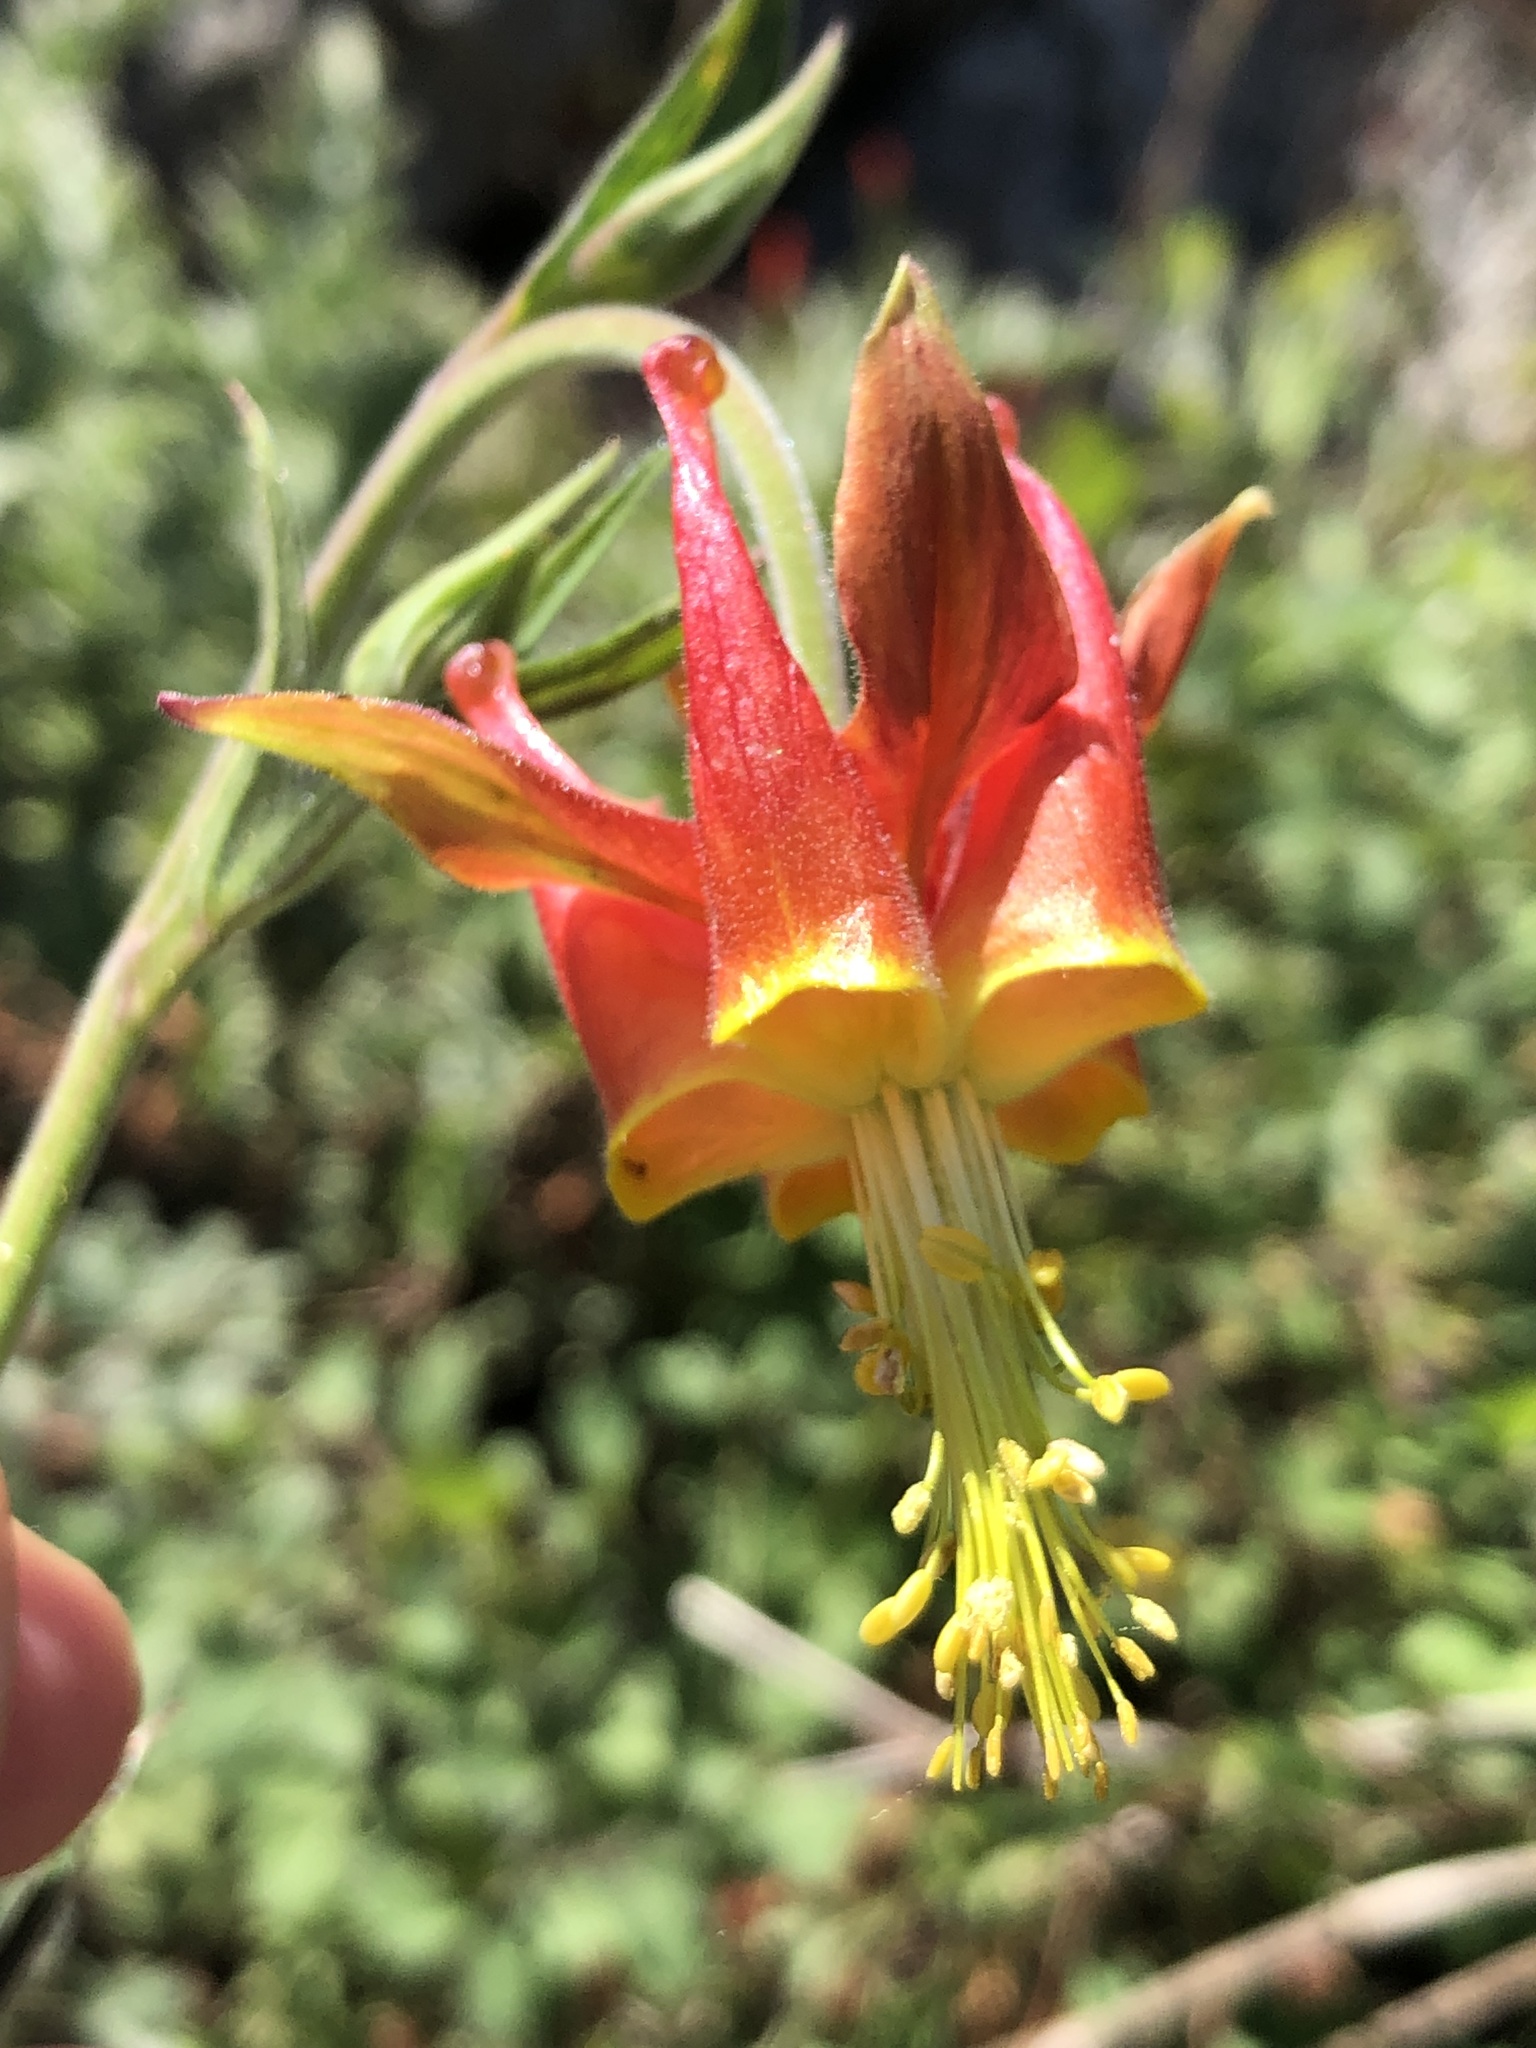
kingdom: Plantae
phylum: Tracheophyta
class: Magnoliopsida
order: Ranunculales
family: Ranunculaceae
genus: Aquilegia
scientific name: Aquilegia eximia
